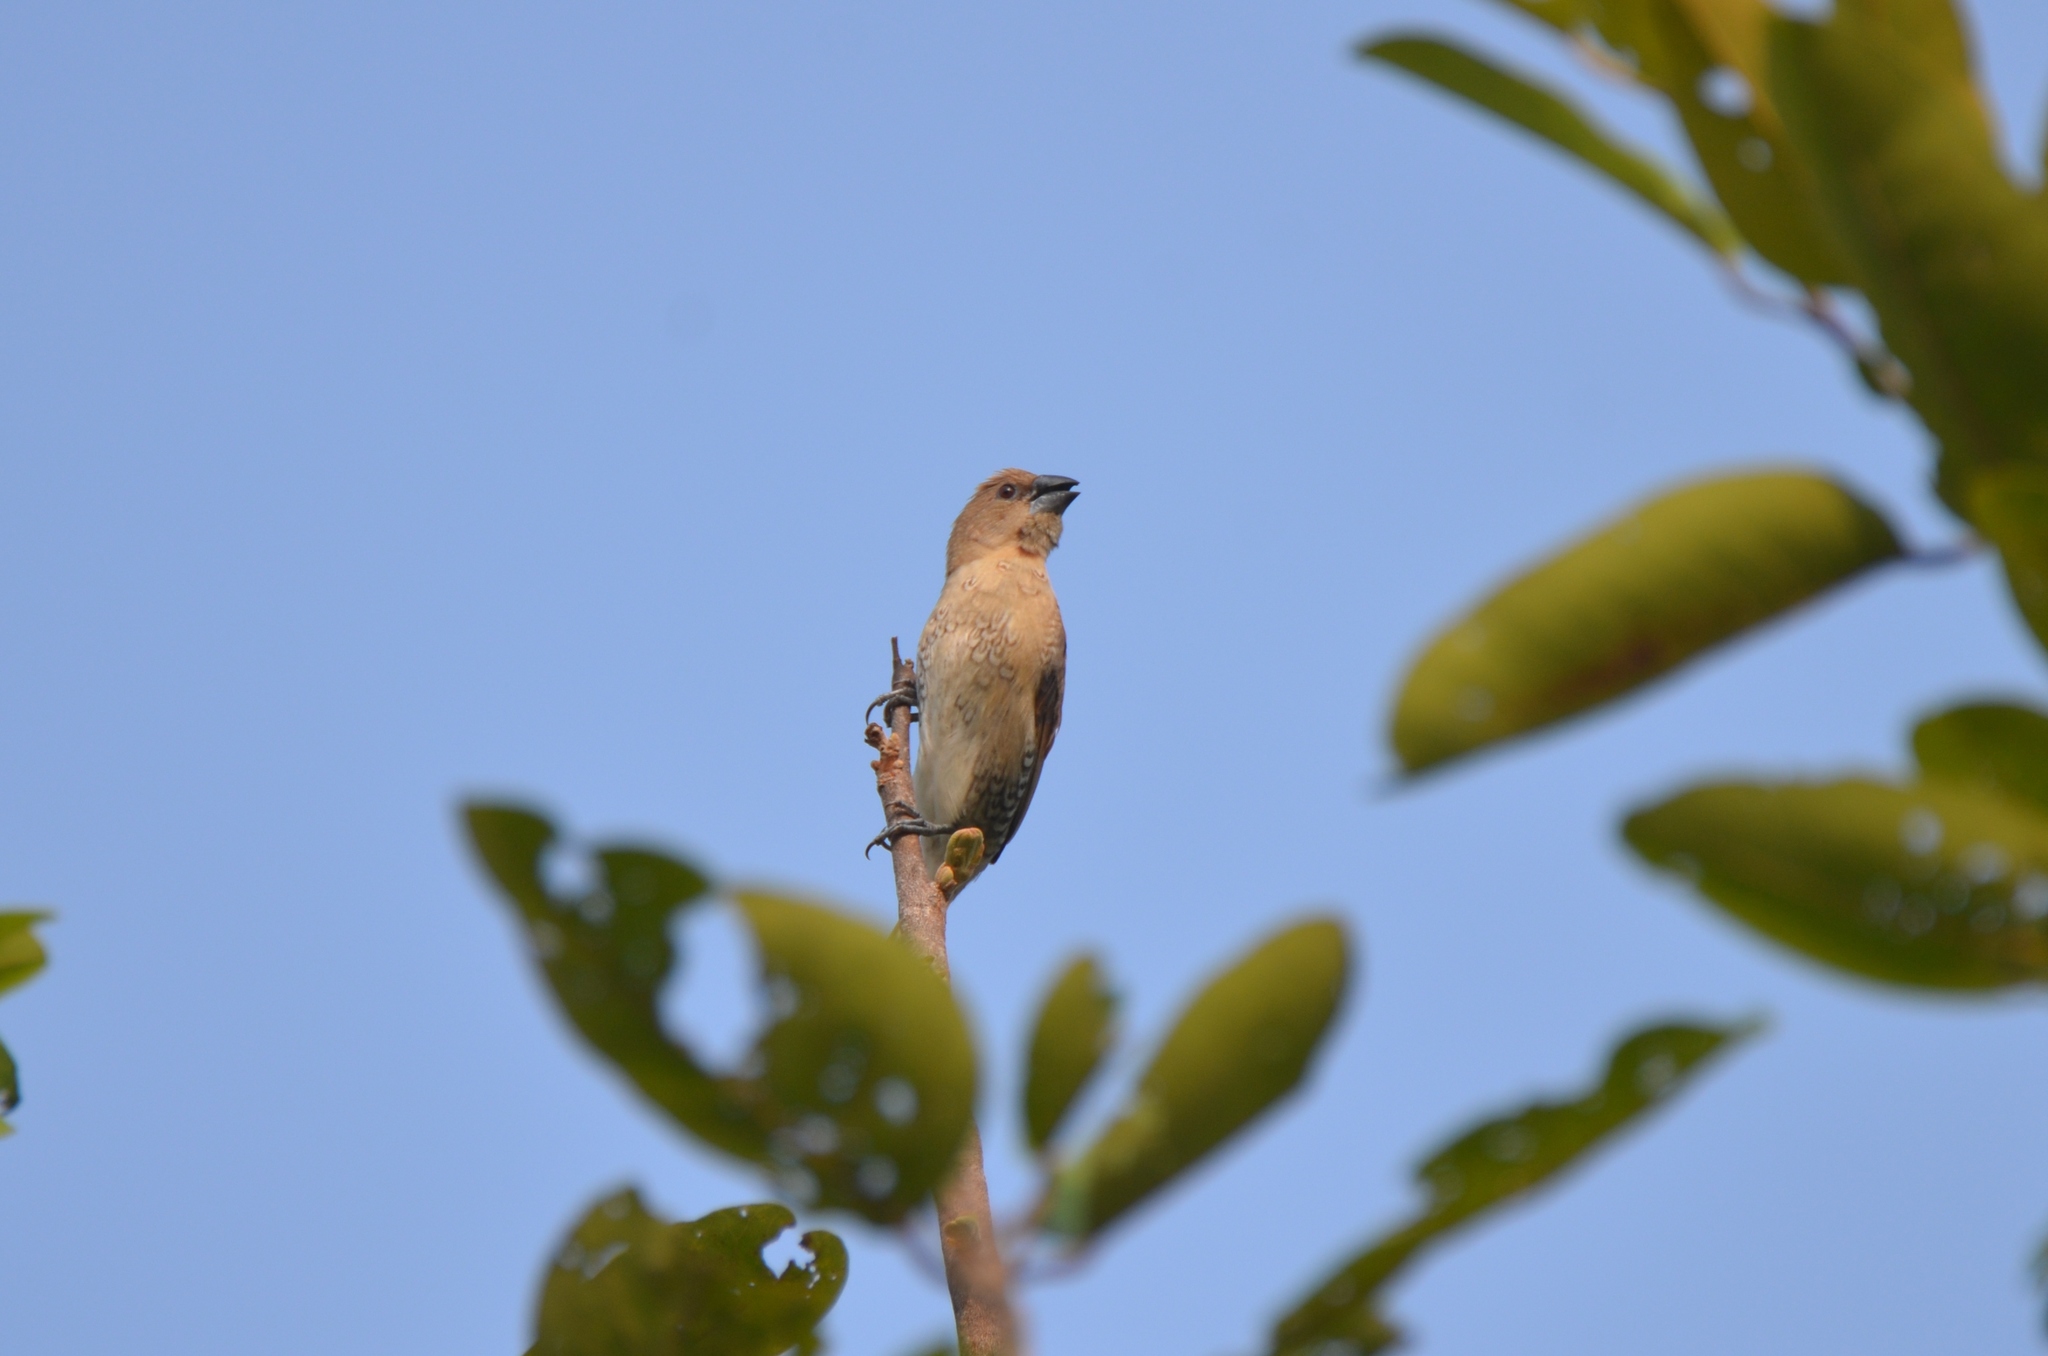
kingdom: Animalia
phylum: Chordata
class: Aves
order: Passeriformes
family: Estrildidae
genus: Lonchura
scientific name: Lonchura punctulata
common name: Scaly-breasted munia
